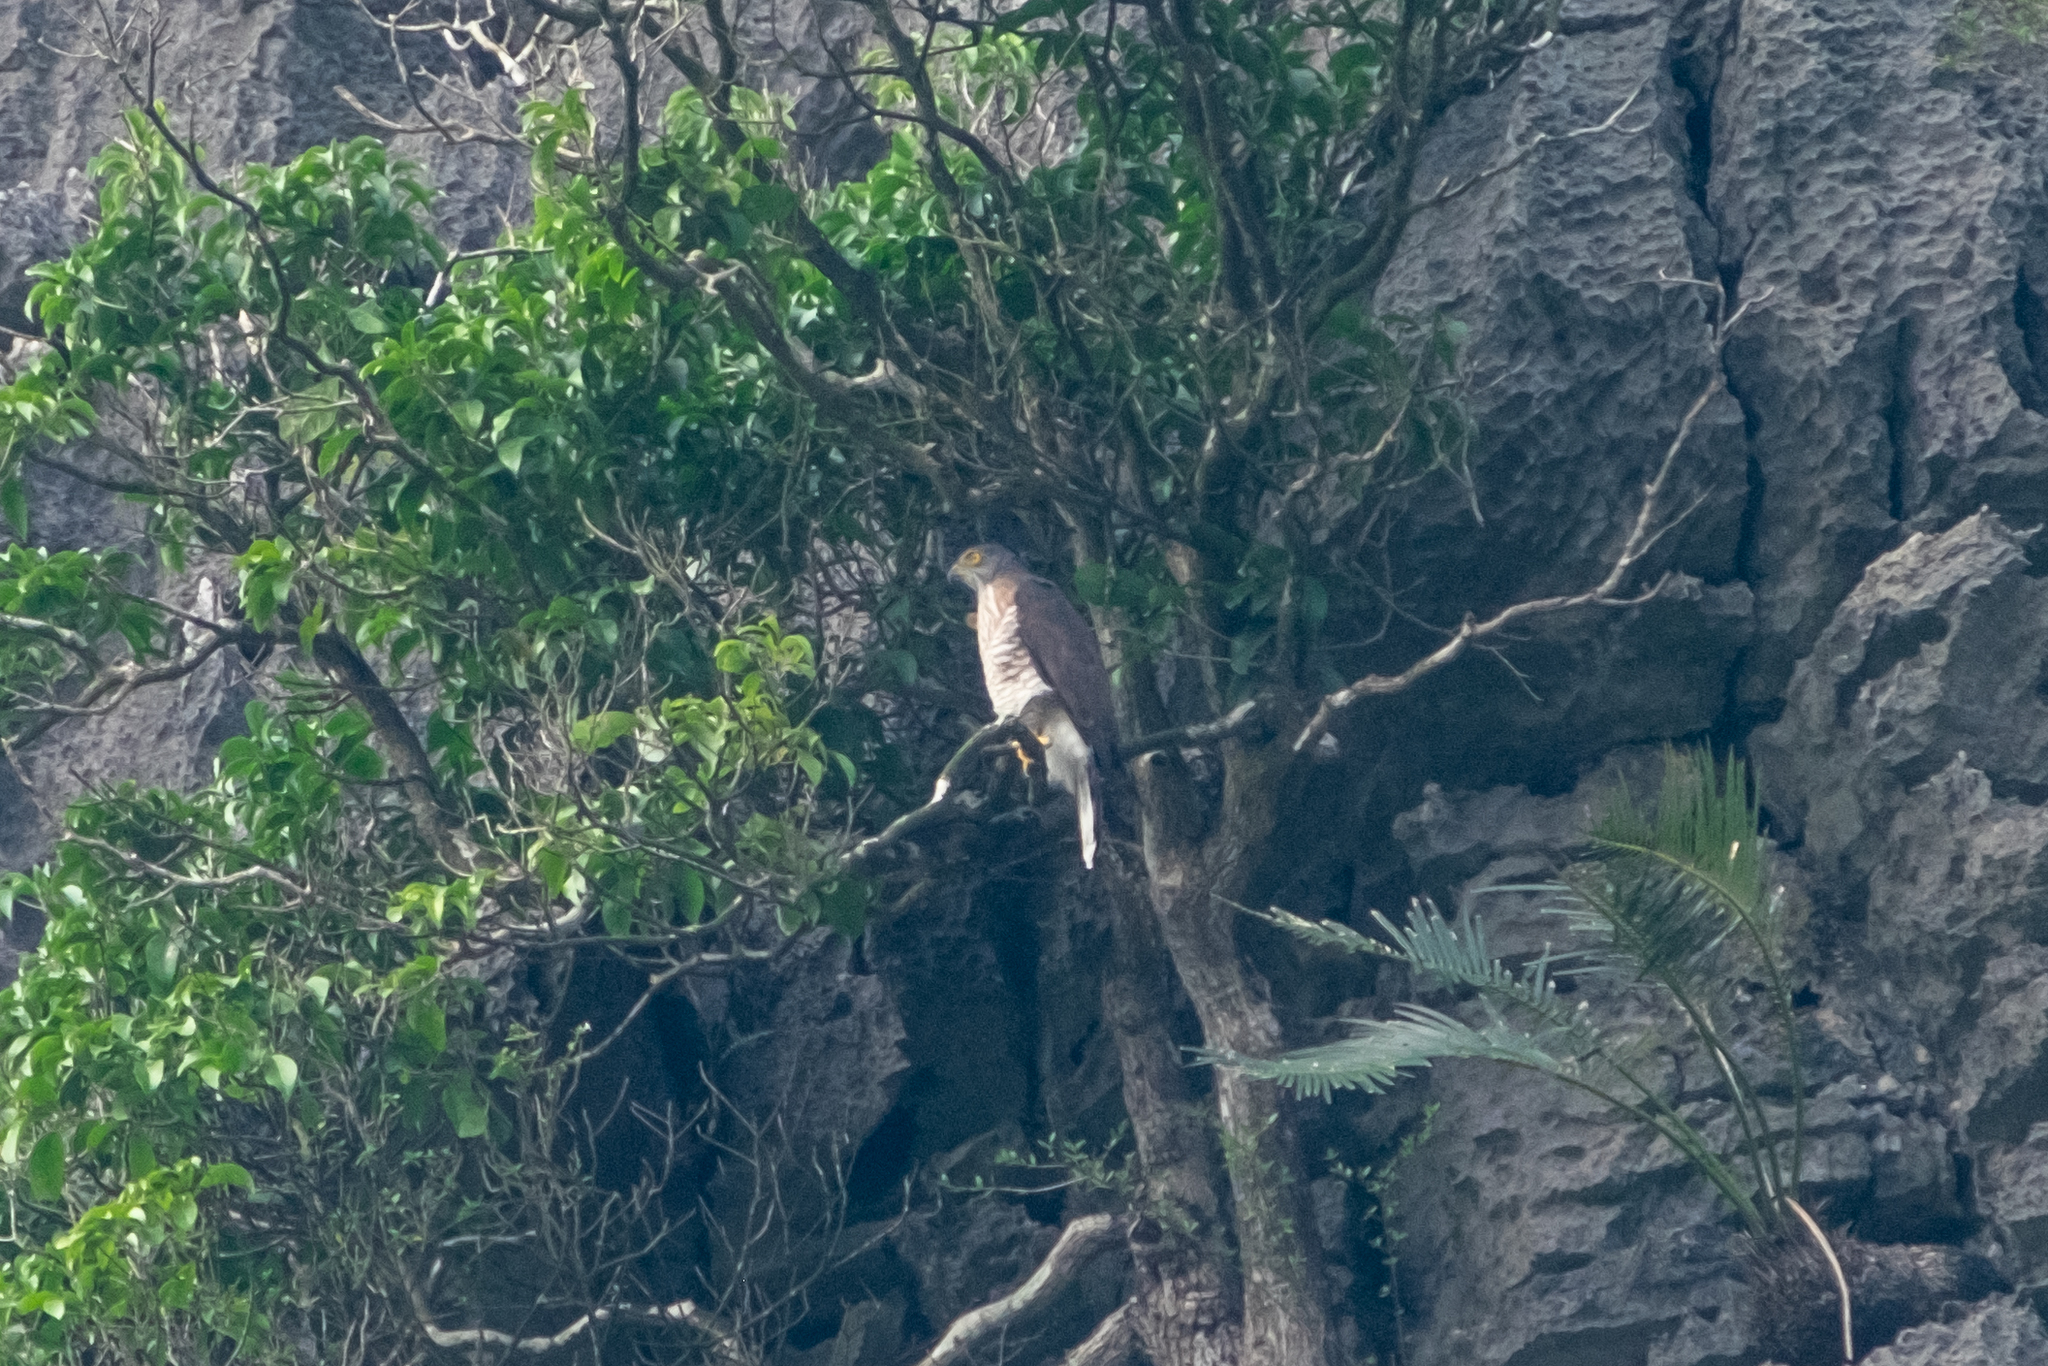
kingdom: Animalia
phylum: Chordata
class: Aves
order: Accipitriformes
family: Accipitridae
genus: Accipiter
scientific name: Accipiter trivirgatus
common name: Crested goshawk
